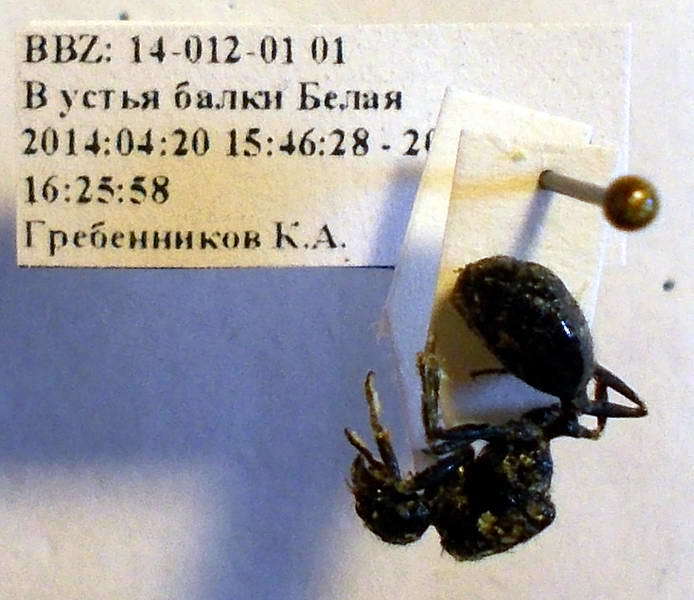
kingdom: Animalia
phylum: Arthropoda
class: Insecta
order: Hymenoptera
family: Formicidae
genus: Messor
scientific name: Messor kasakorum
